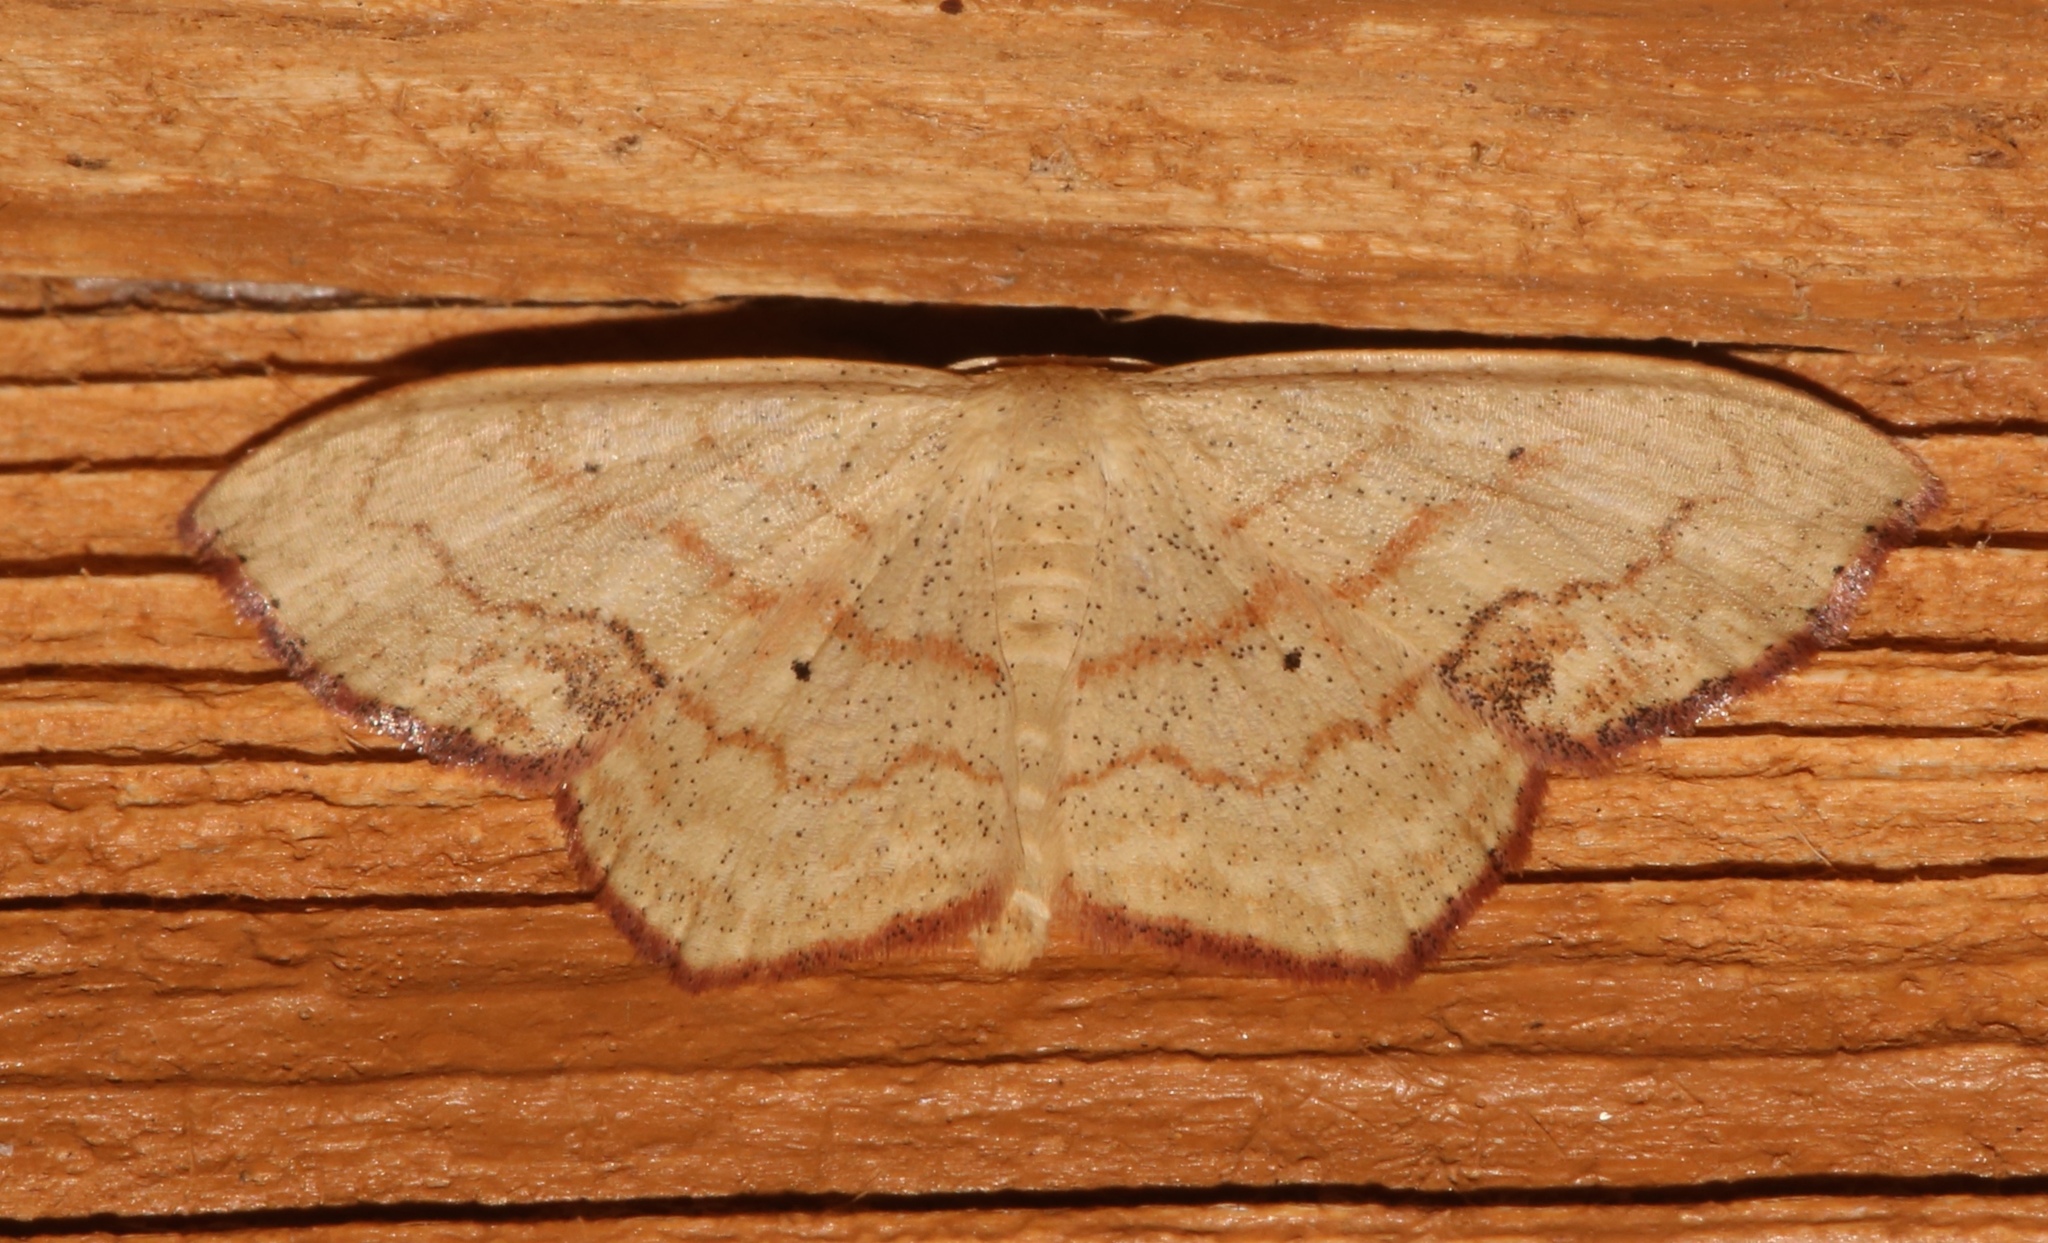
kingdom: Animalia
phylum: Arthropoda
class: Insecta
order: Lepidoptera
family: Geometridae
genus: Scopula
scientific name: Scopula timandrata
